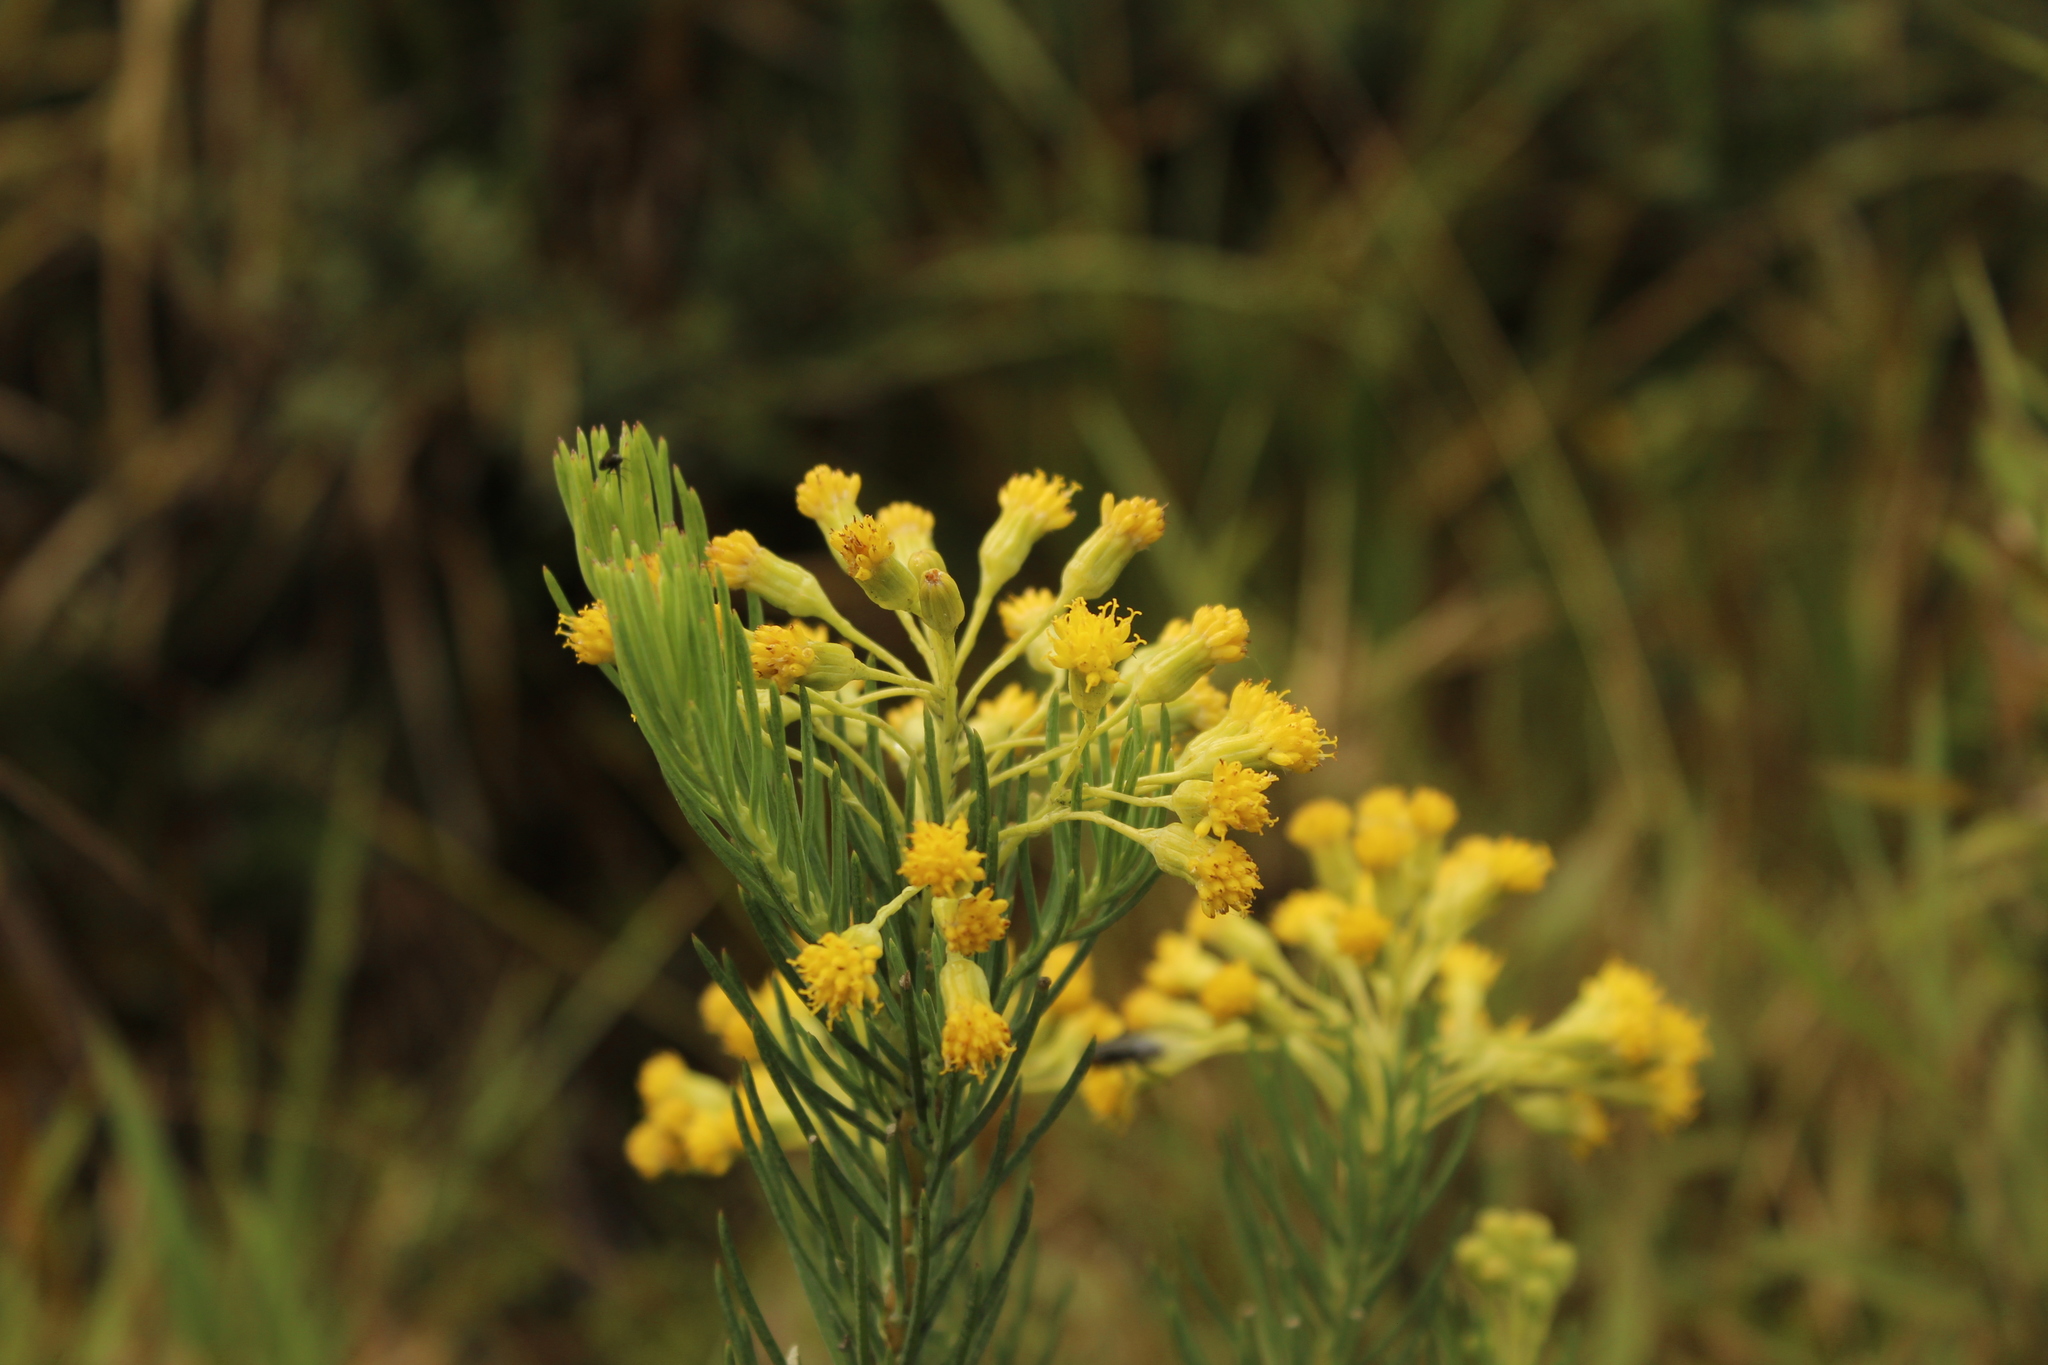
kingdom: Plantae
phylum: Tracheophyta
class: Magnoliopsida
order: Asterales
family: Asteraceae
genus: Monticalia
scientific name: Monticalia abietina
